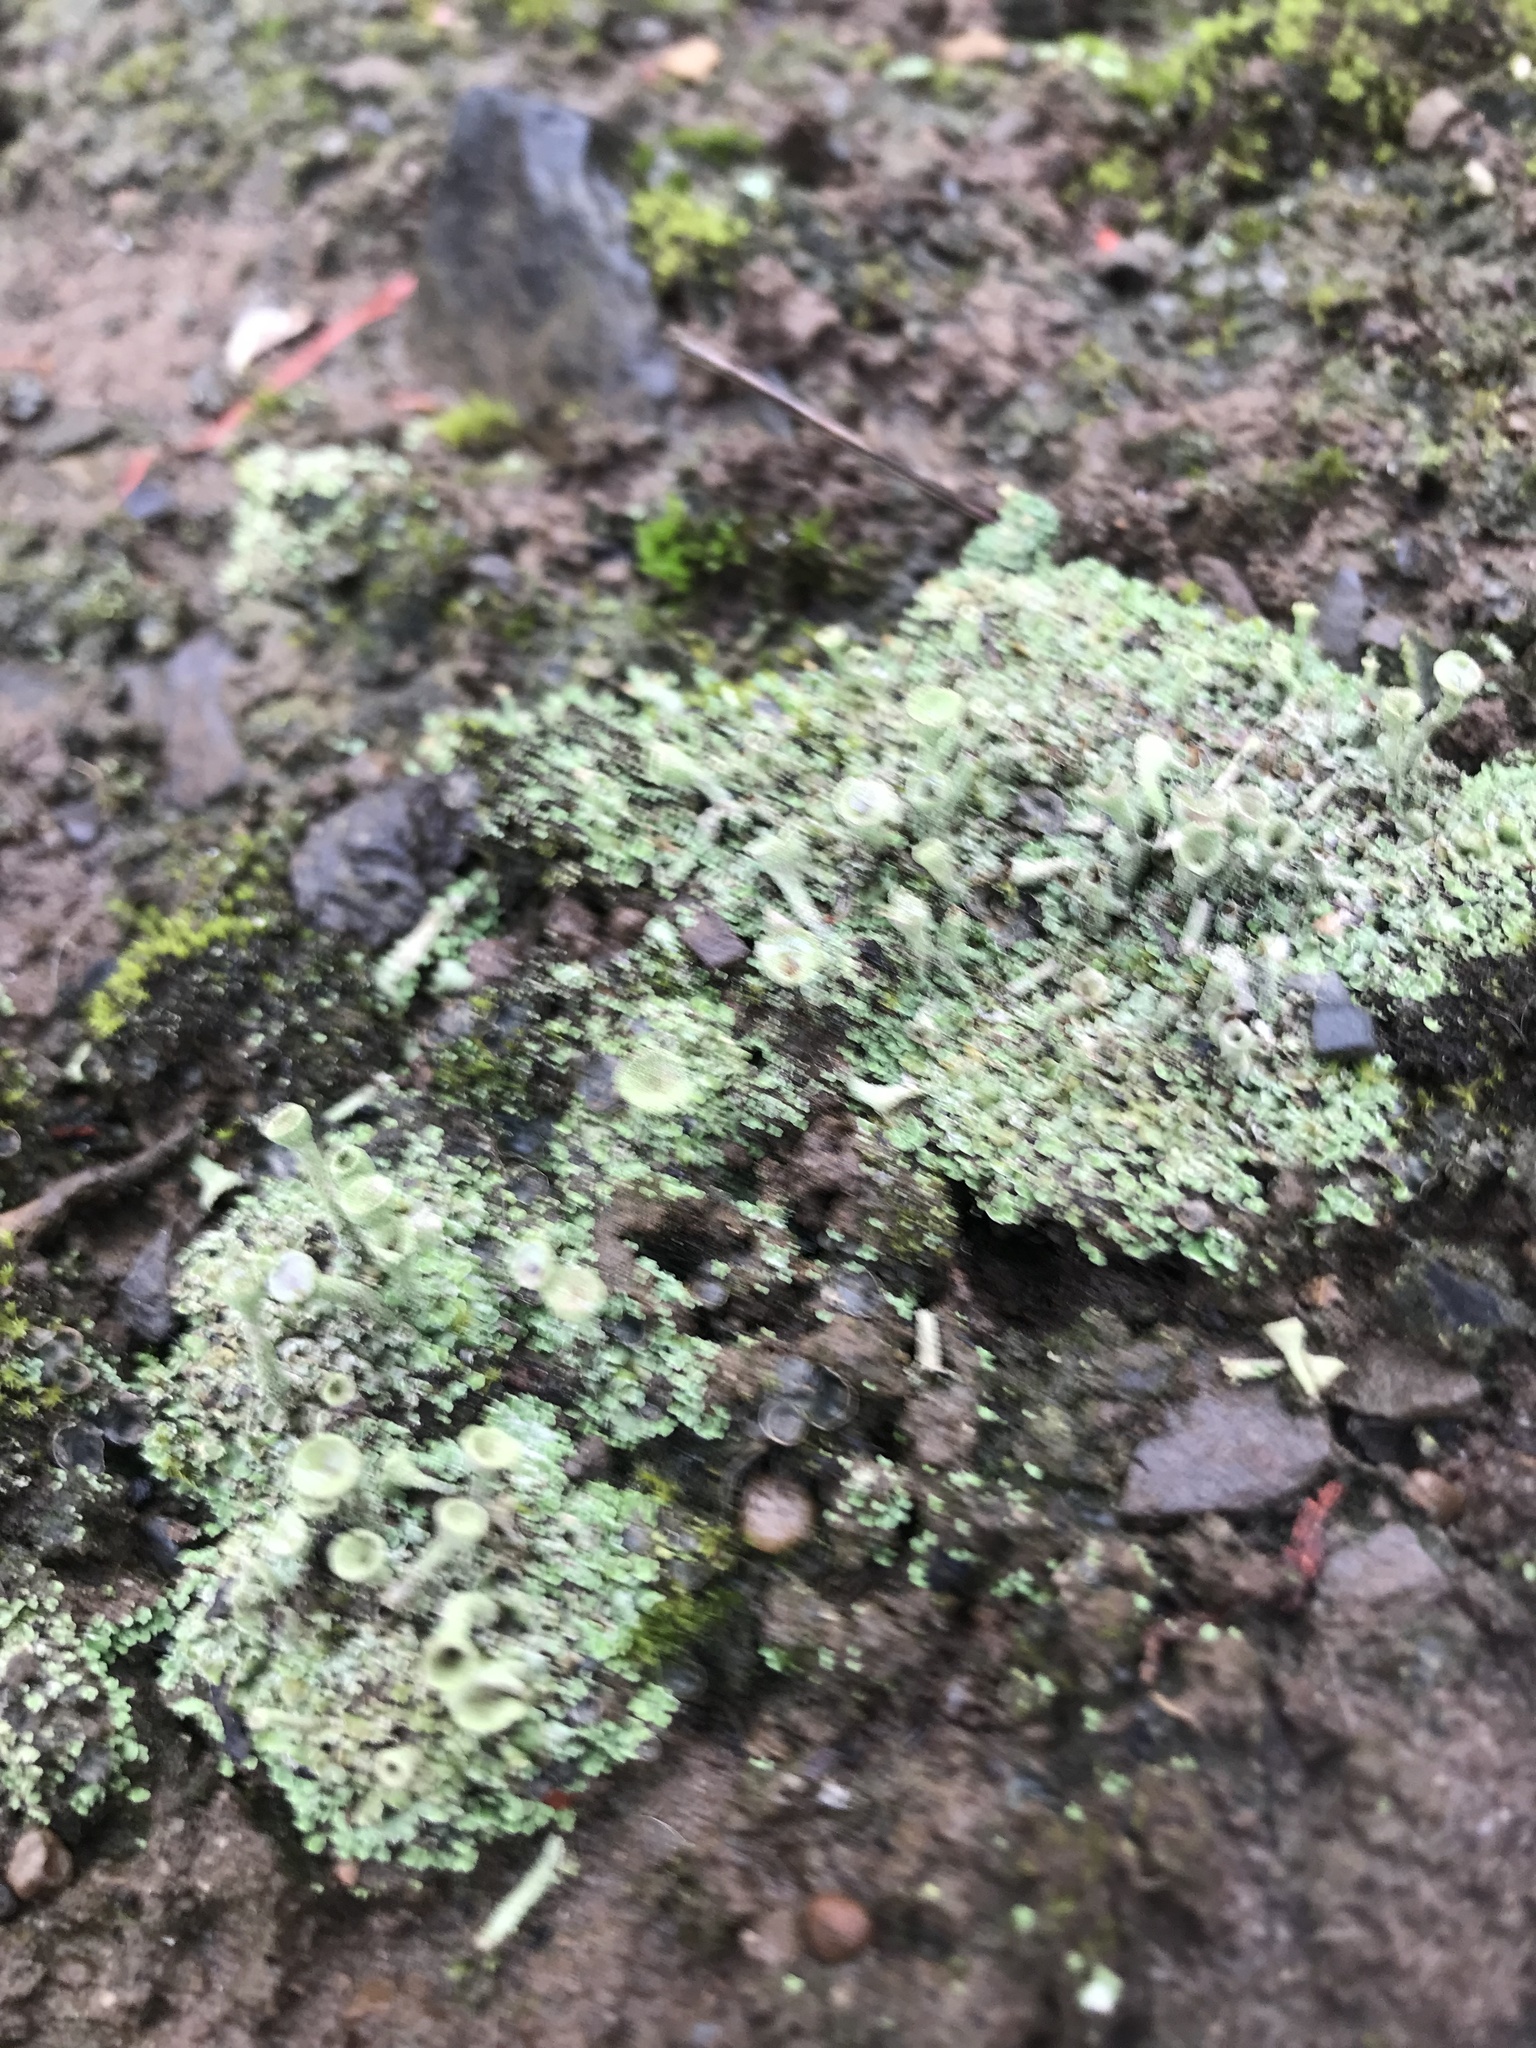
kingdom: Fungi
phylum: Ascomycota
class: Lecanoromycetes
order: Lecanorales
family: Cladoniaceae
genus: Cladonia
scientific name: Cladonia fimbriata
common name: Powdered trumpet lichen
